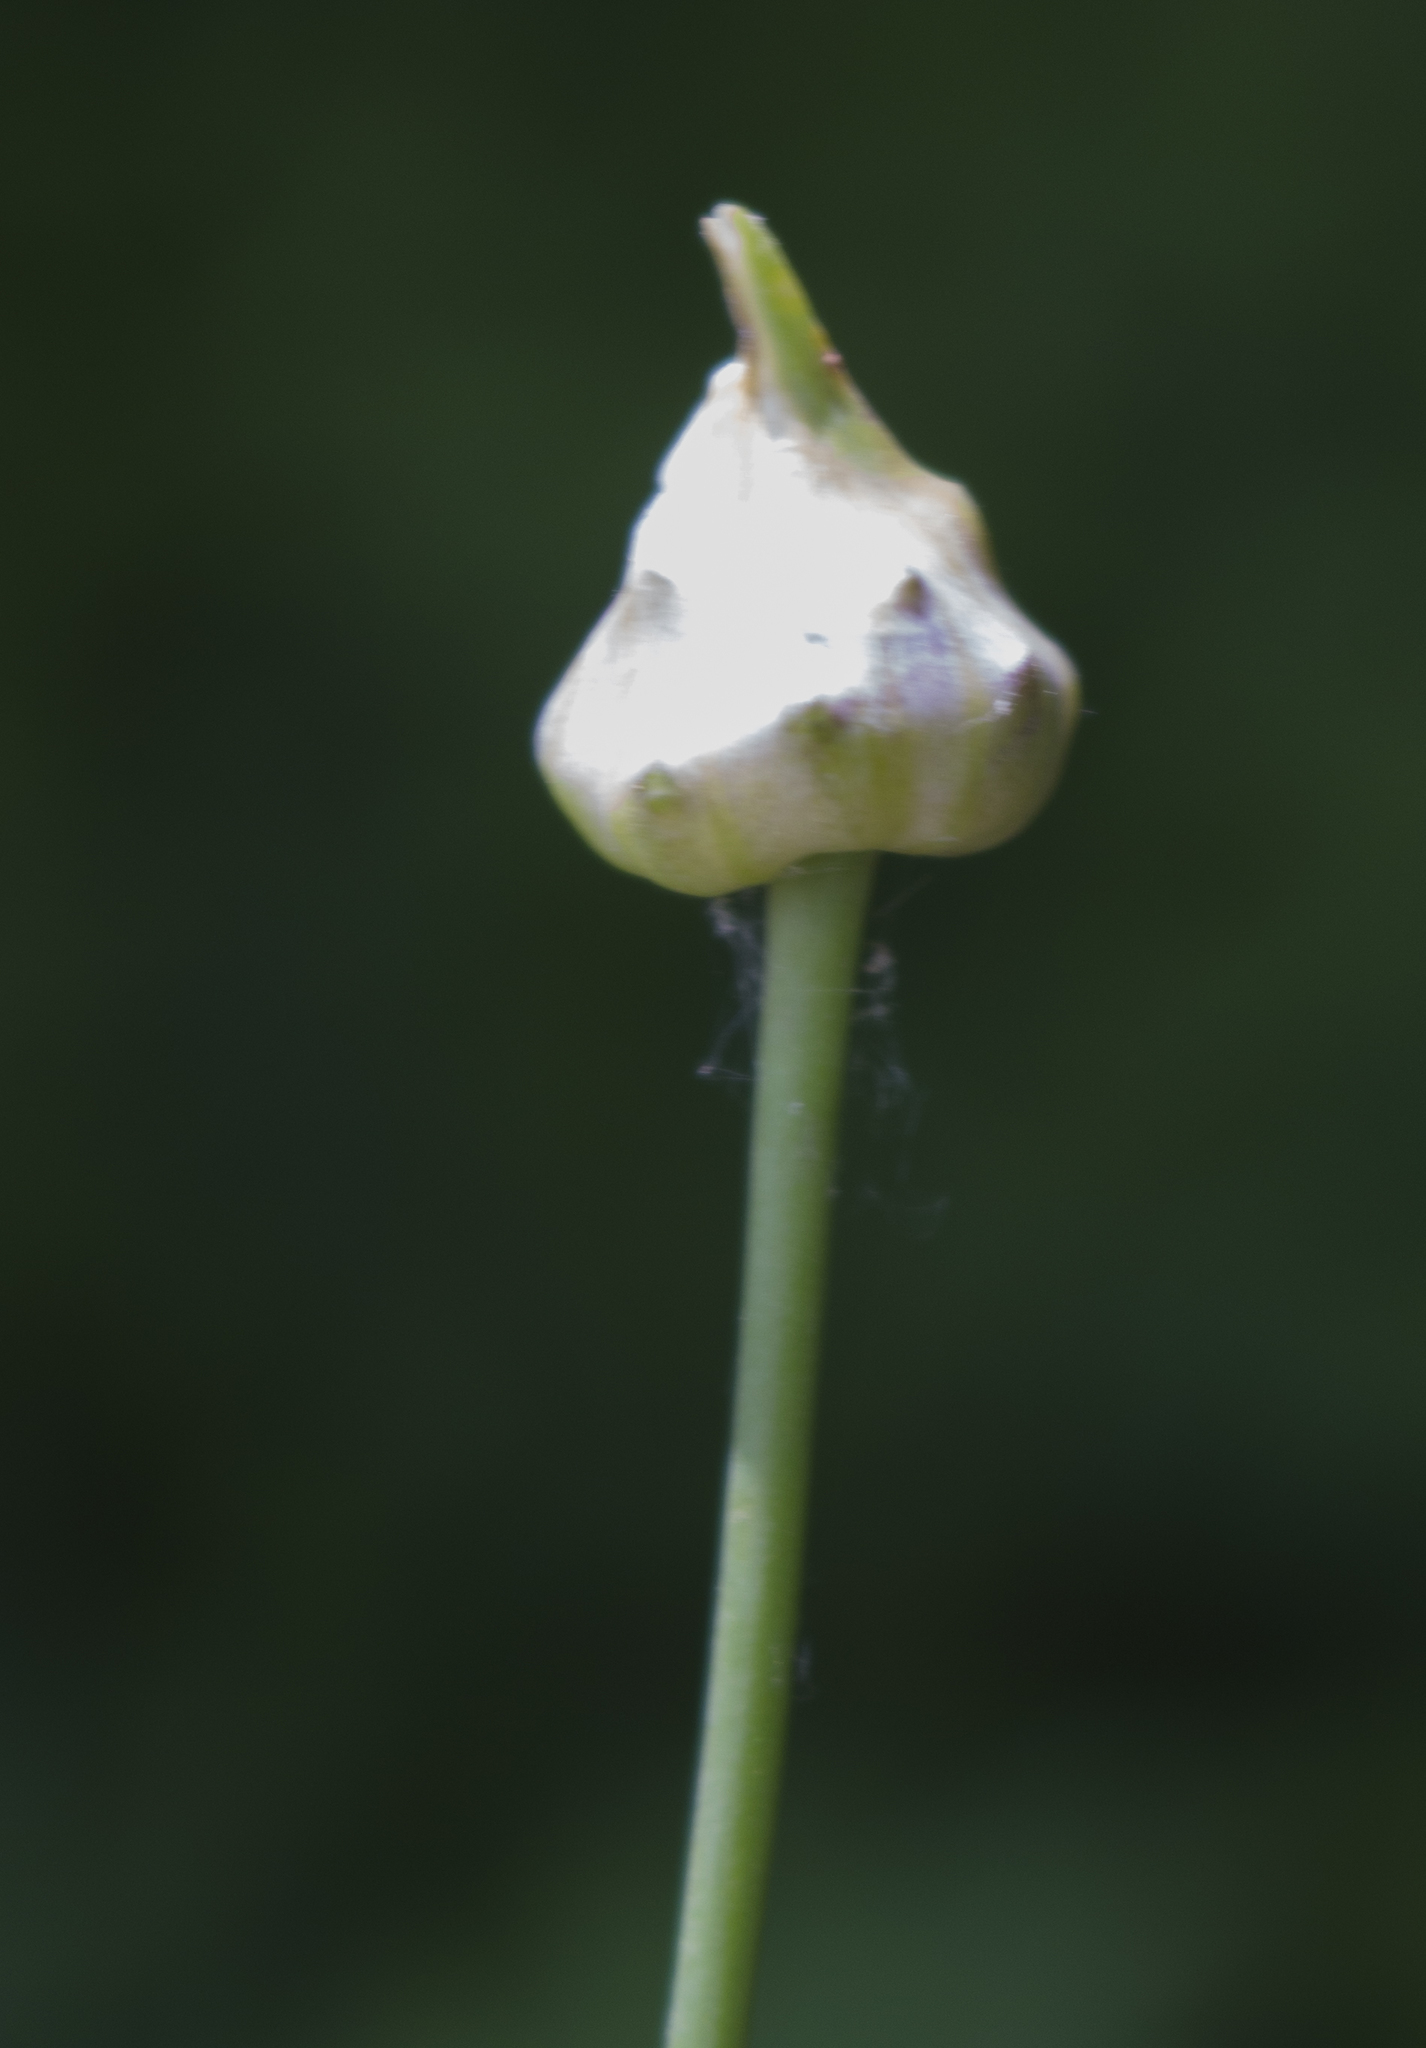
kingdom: Plantae
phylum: Tracheophyta
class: Liliopsida
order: Asparagales
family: Amaryllidaceae
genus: Allium
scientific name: Allium canadense
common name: Meadow garlic
